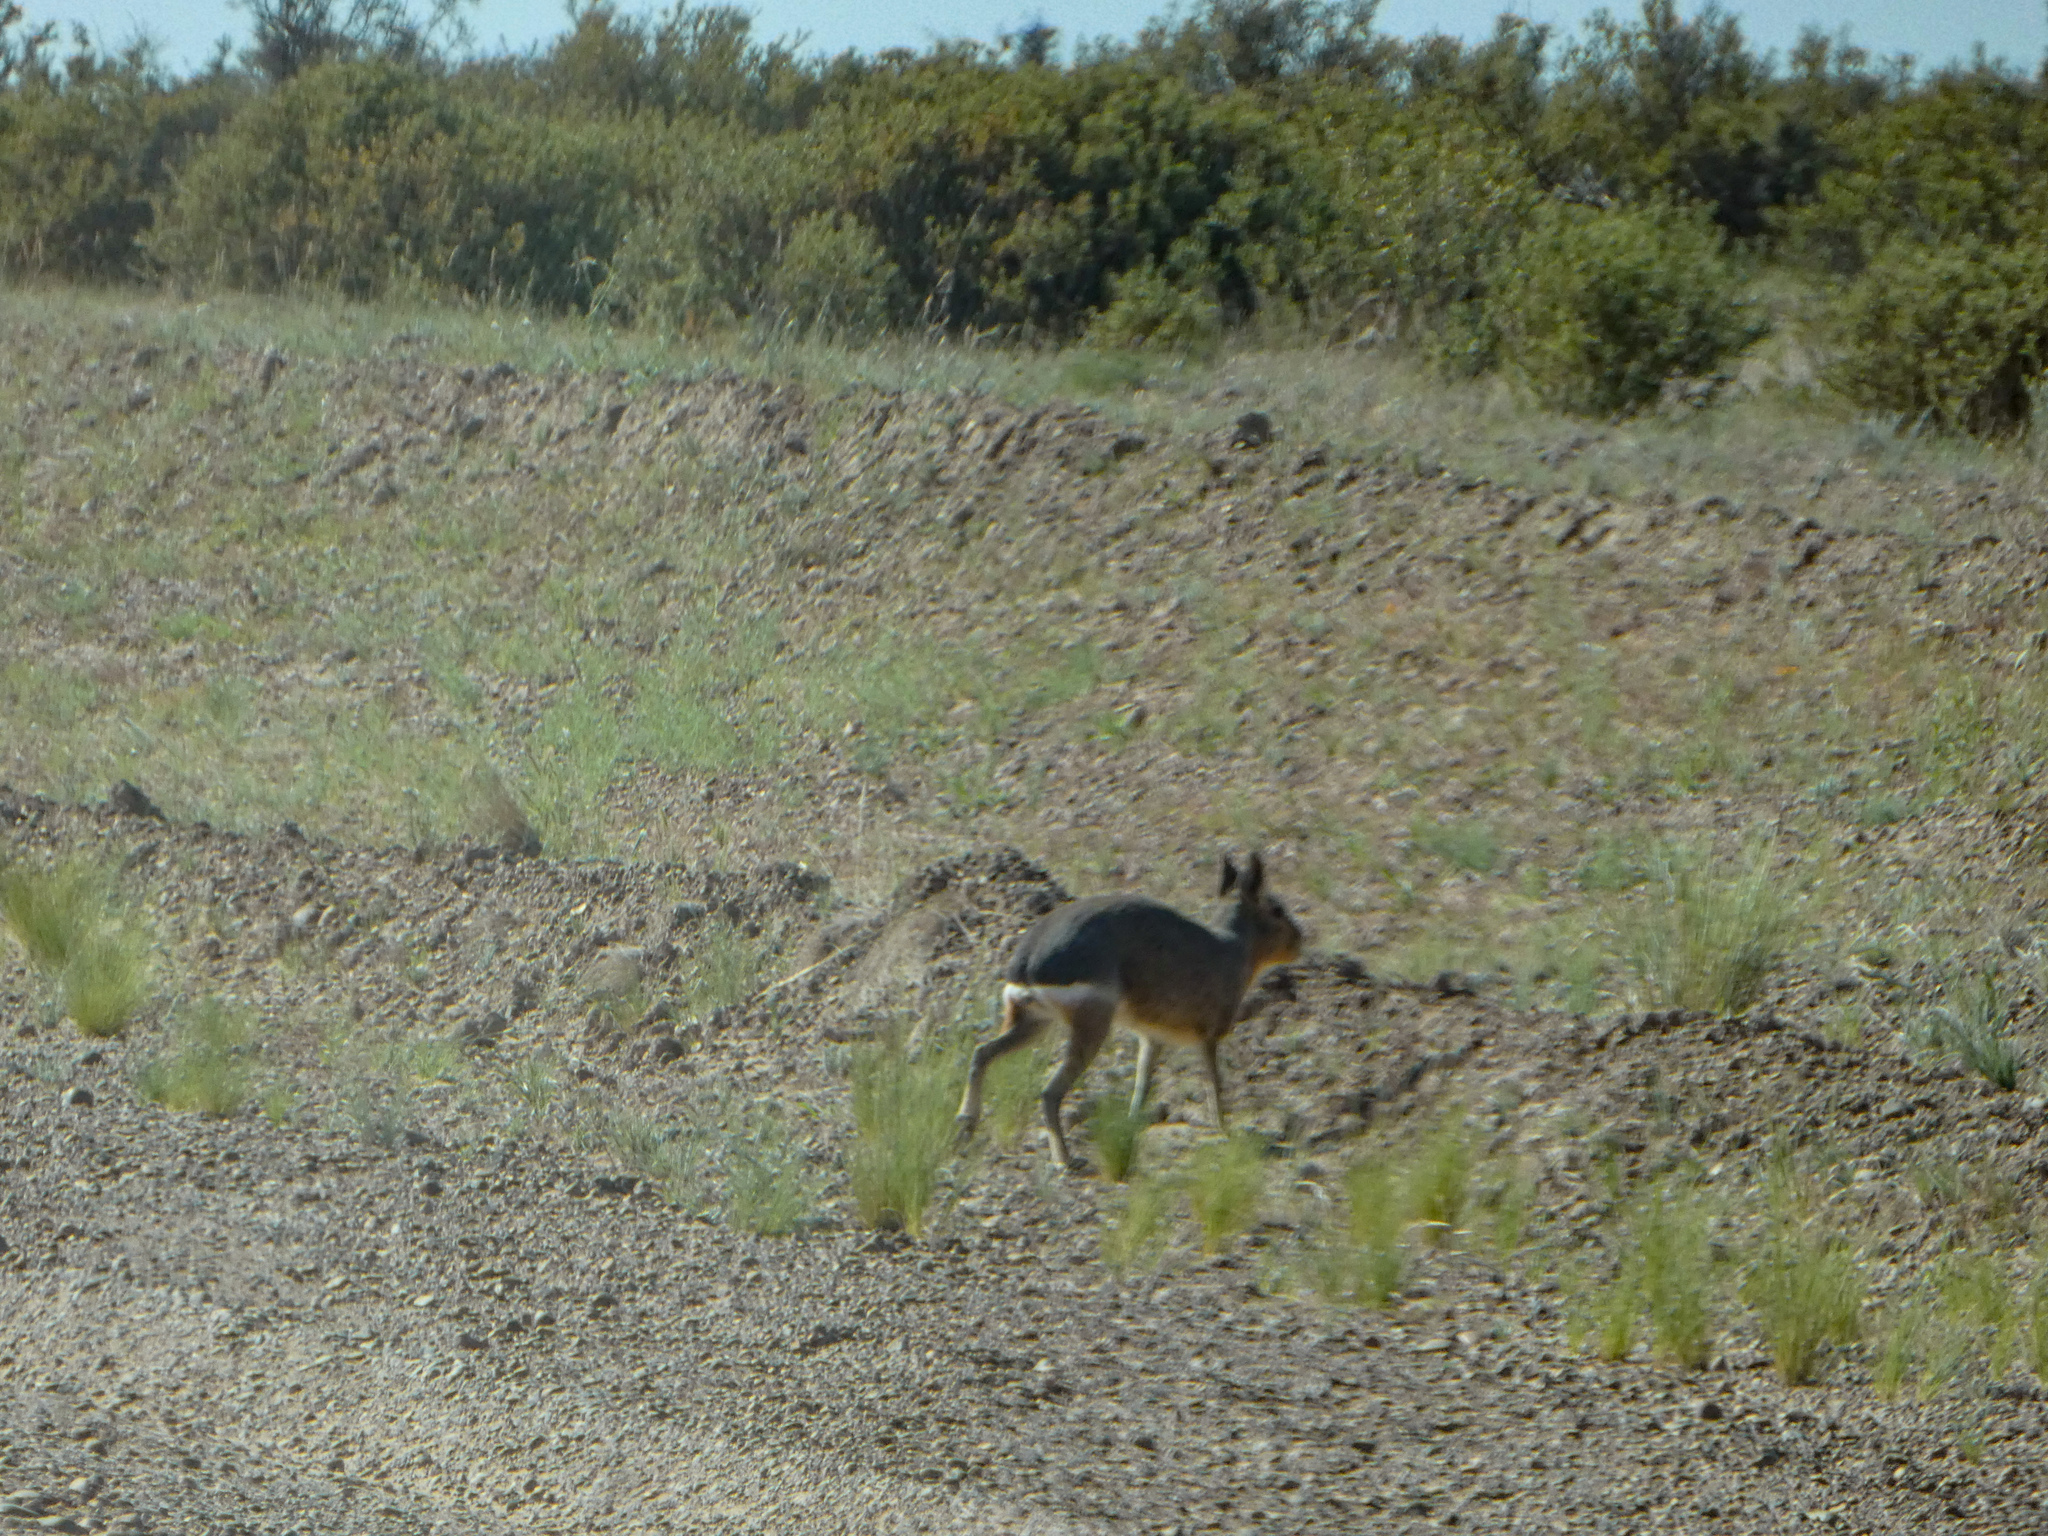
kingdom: Animalia
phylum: Chordata
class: Mammalia
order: Rodentia
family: Caviidae
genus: Dolichotis
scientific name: Dolichotis patagonum
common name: Patagonian mara
